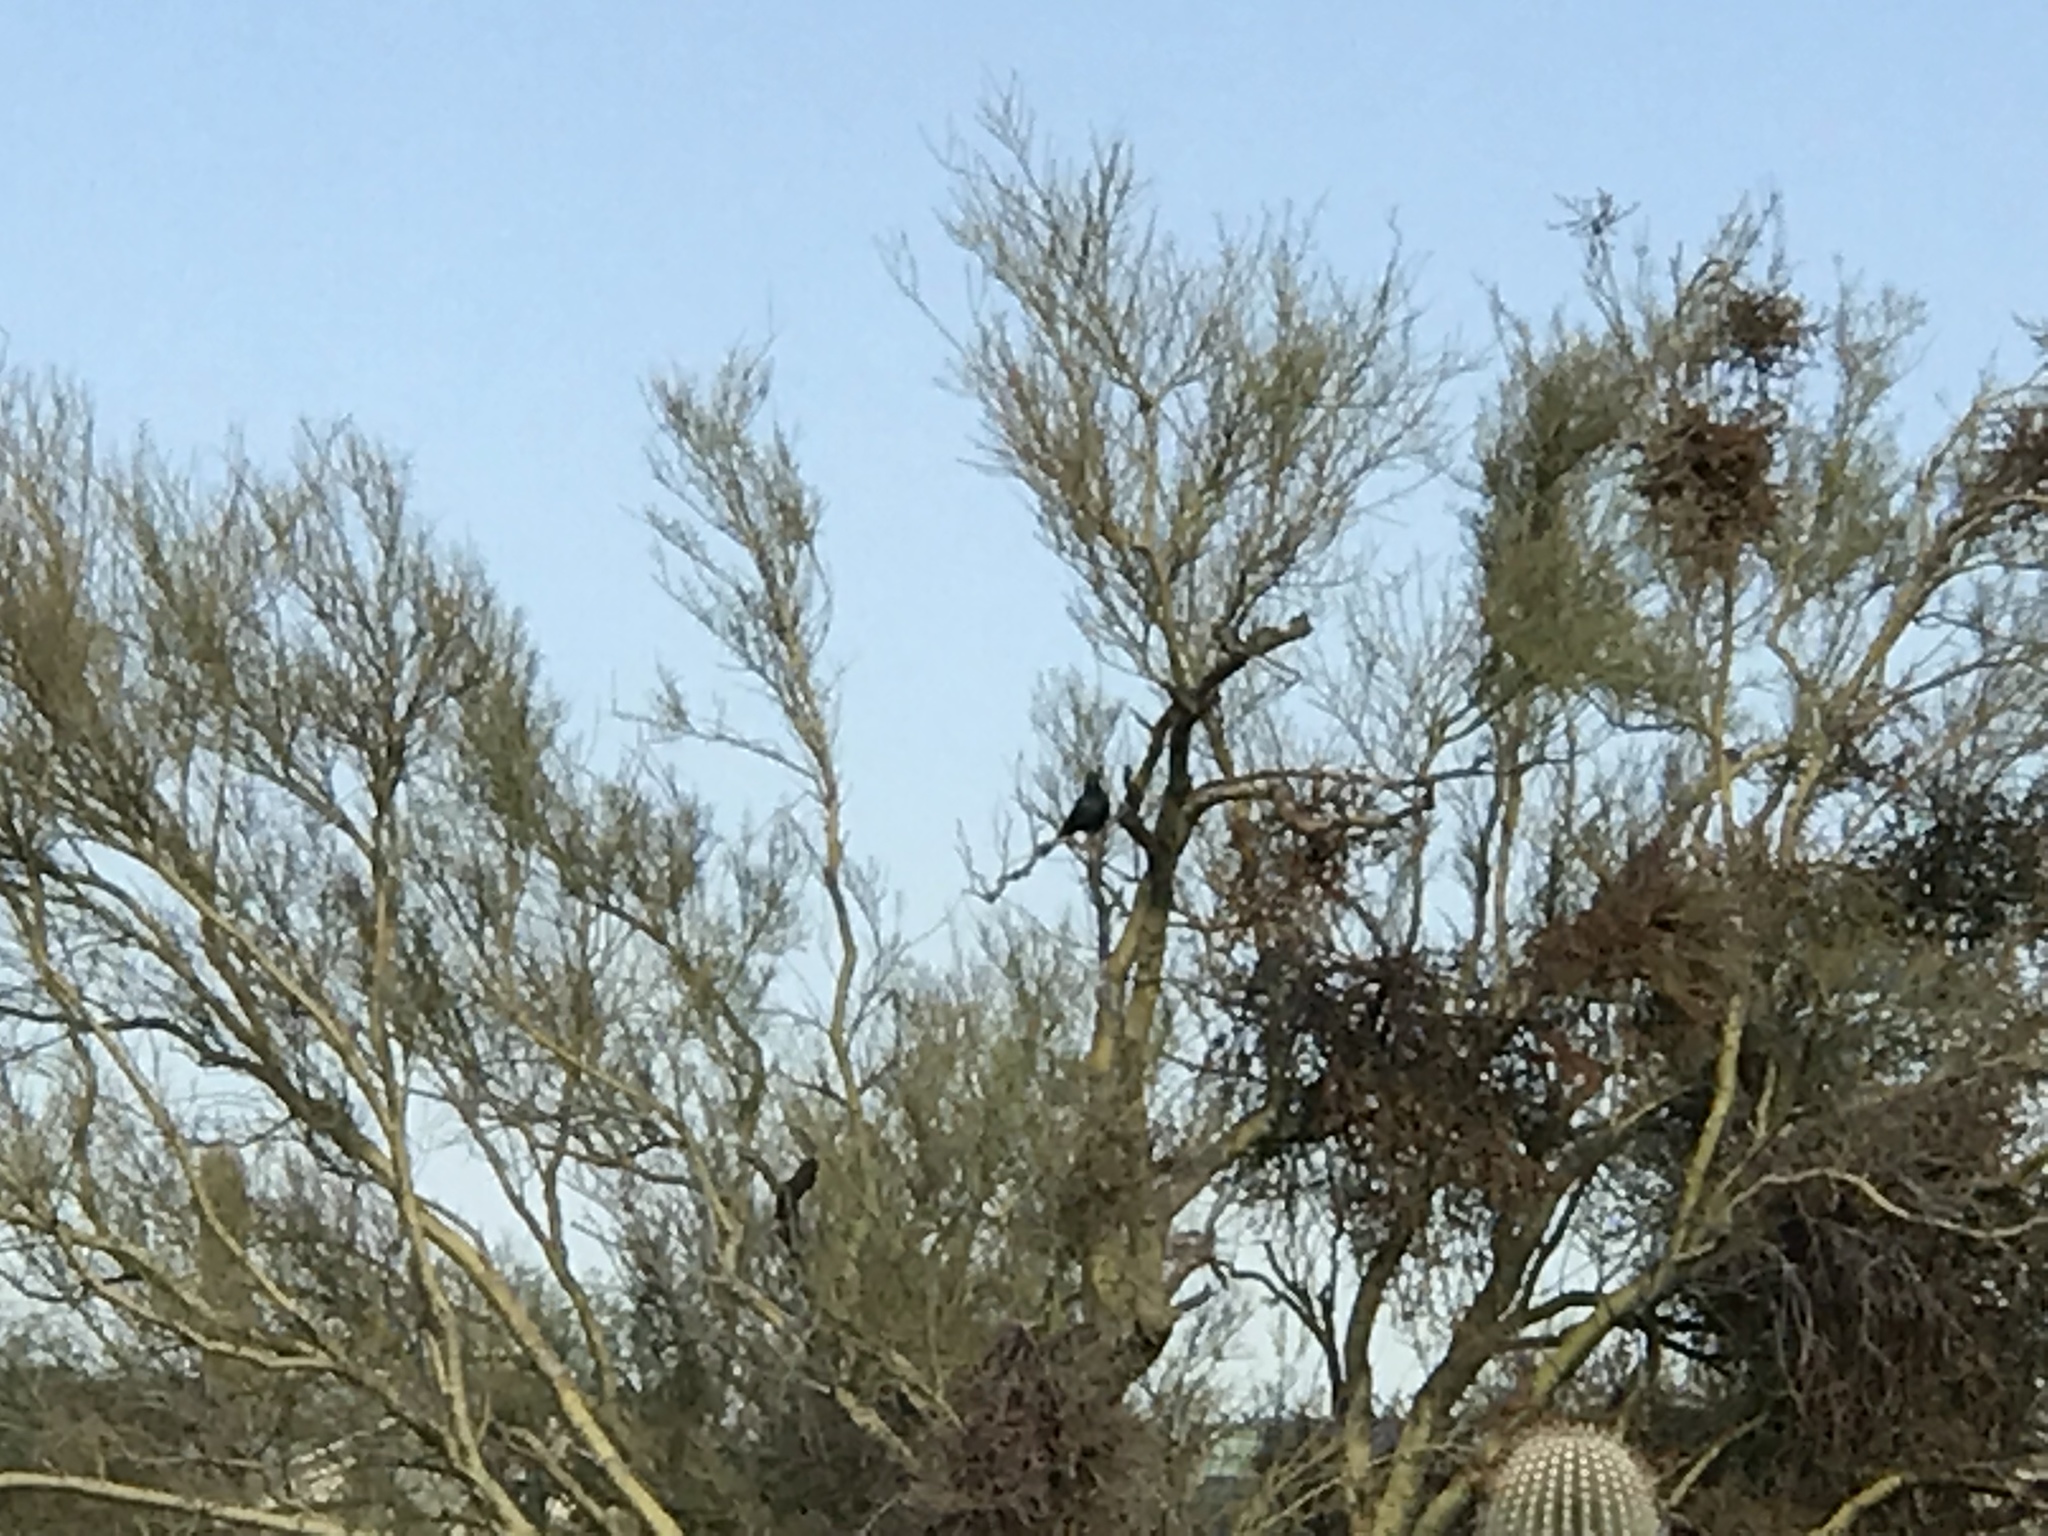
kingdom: Plantae
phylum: Tracheophyta
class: Magnoliopsida
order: Fabales
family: Fabaceae
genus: Parkinsonia
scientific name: Parkinsonia microphylla
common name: Yellow paloverde
